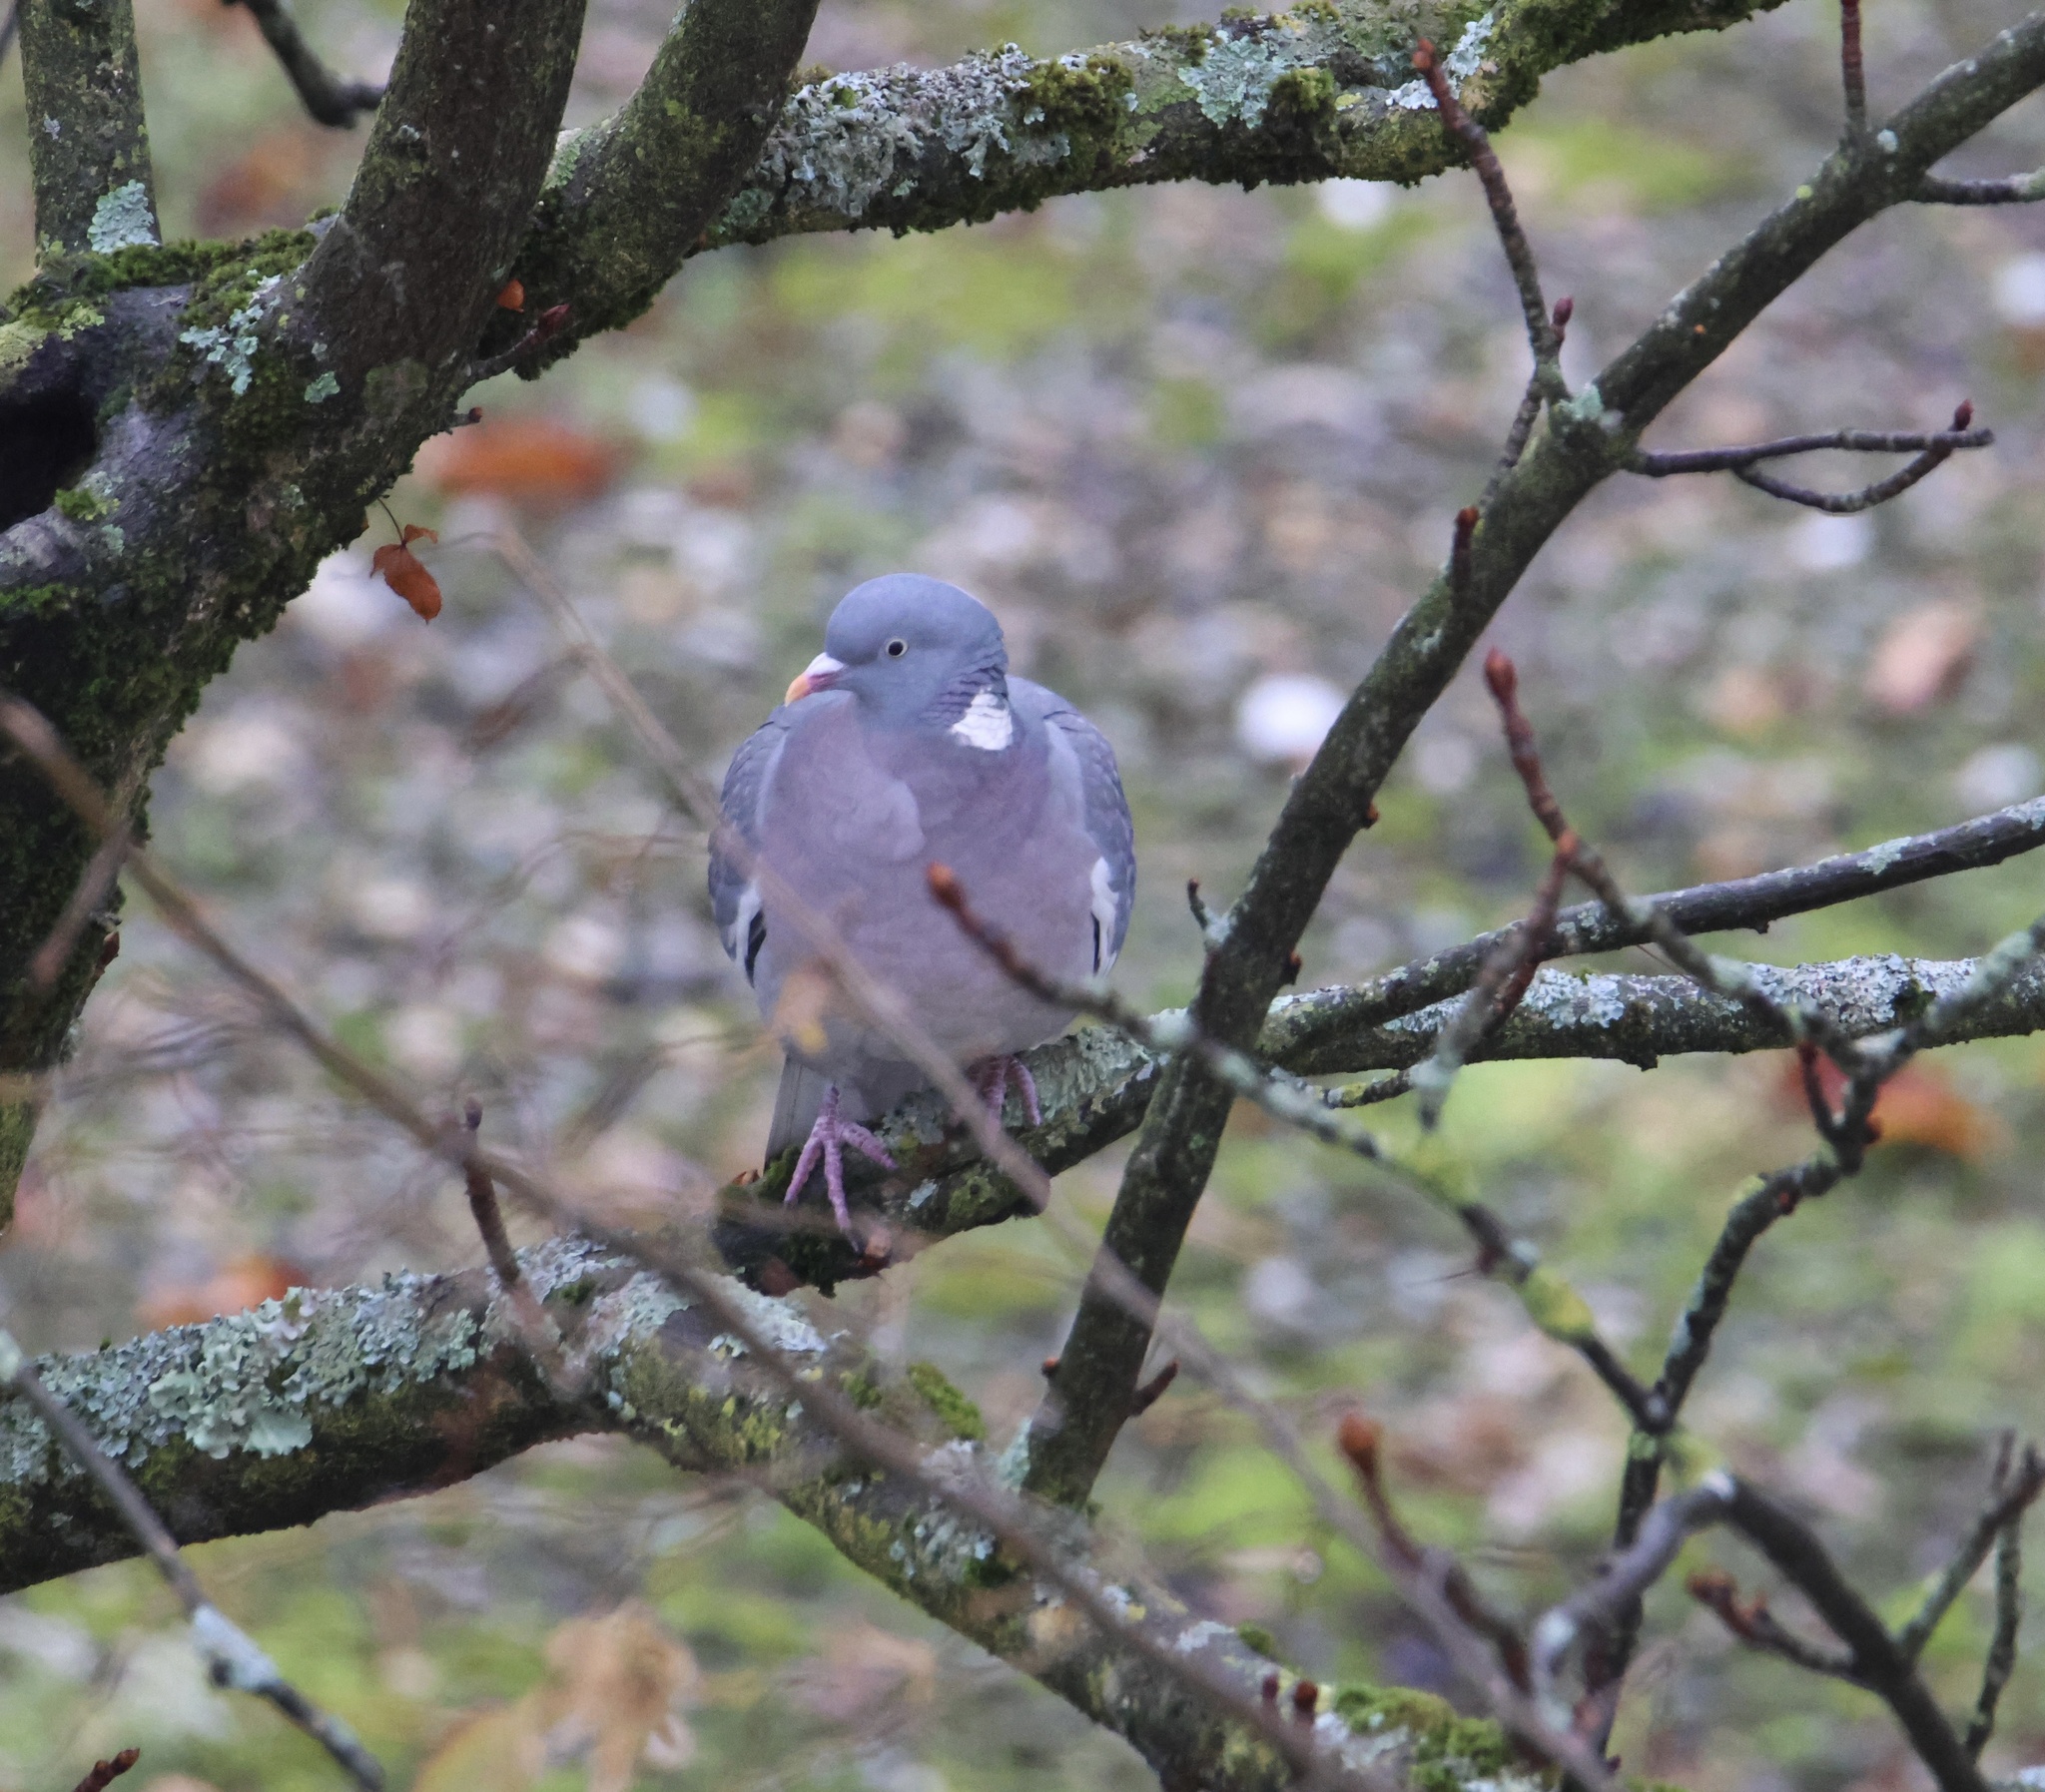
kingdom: Animalia
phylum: Chordata
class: Aves
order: Columbiformes
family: Columbidae
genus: Columba
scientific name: Columba palumbus
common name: Common wood pigeon
